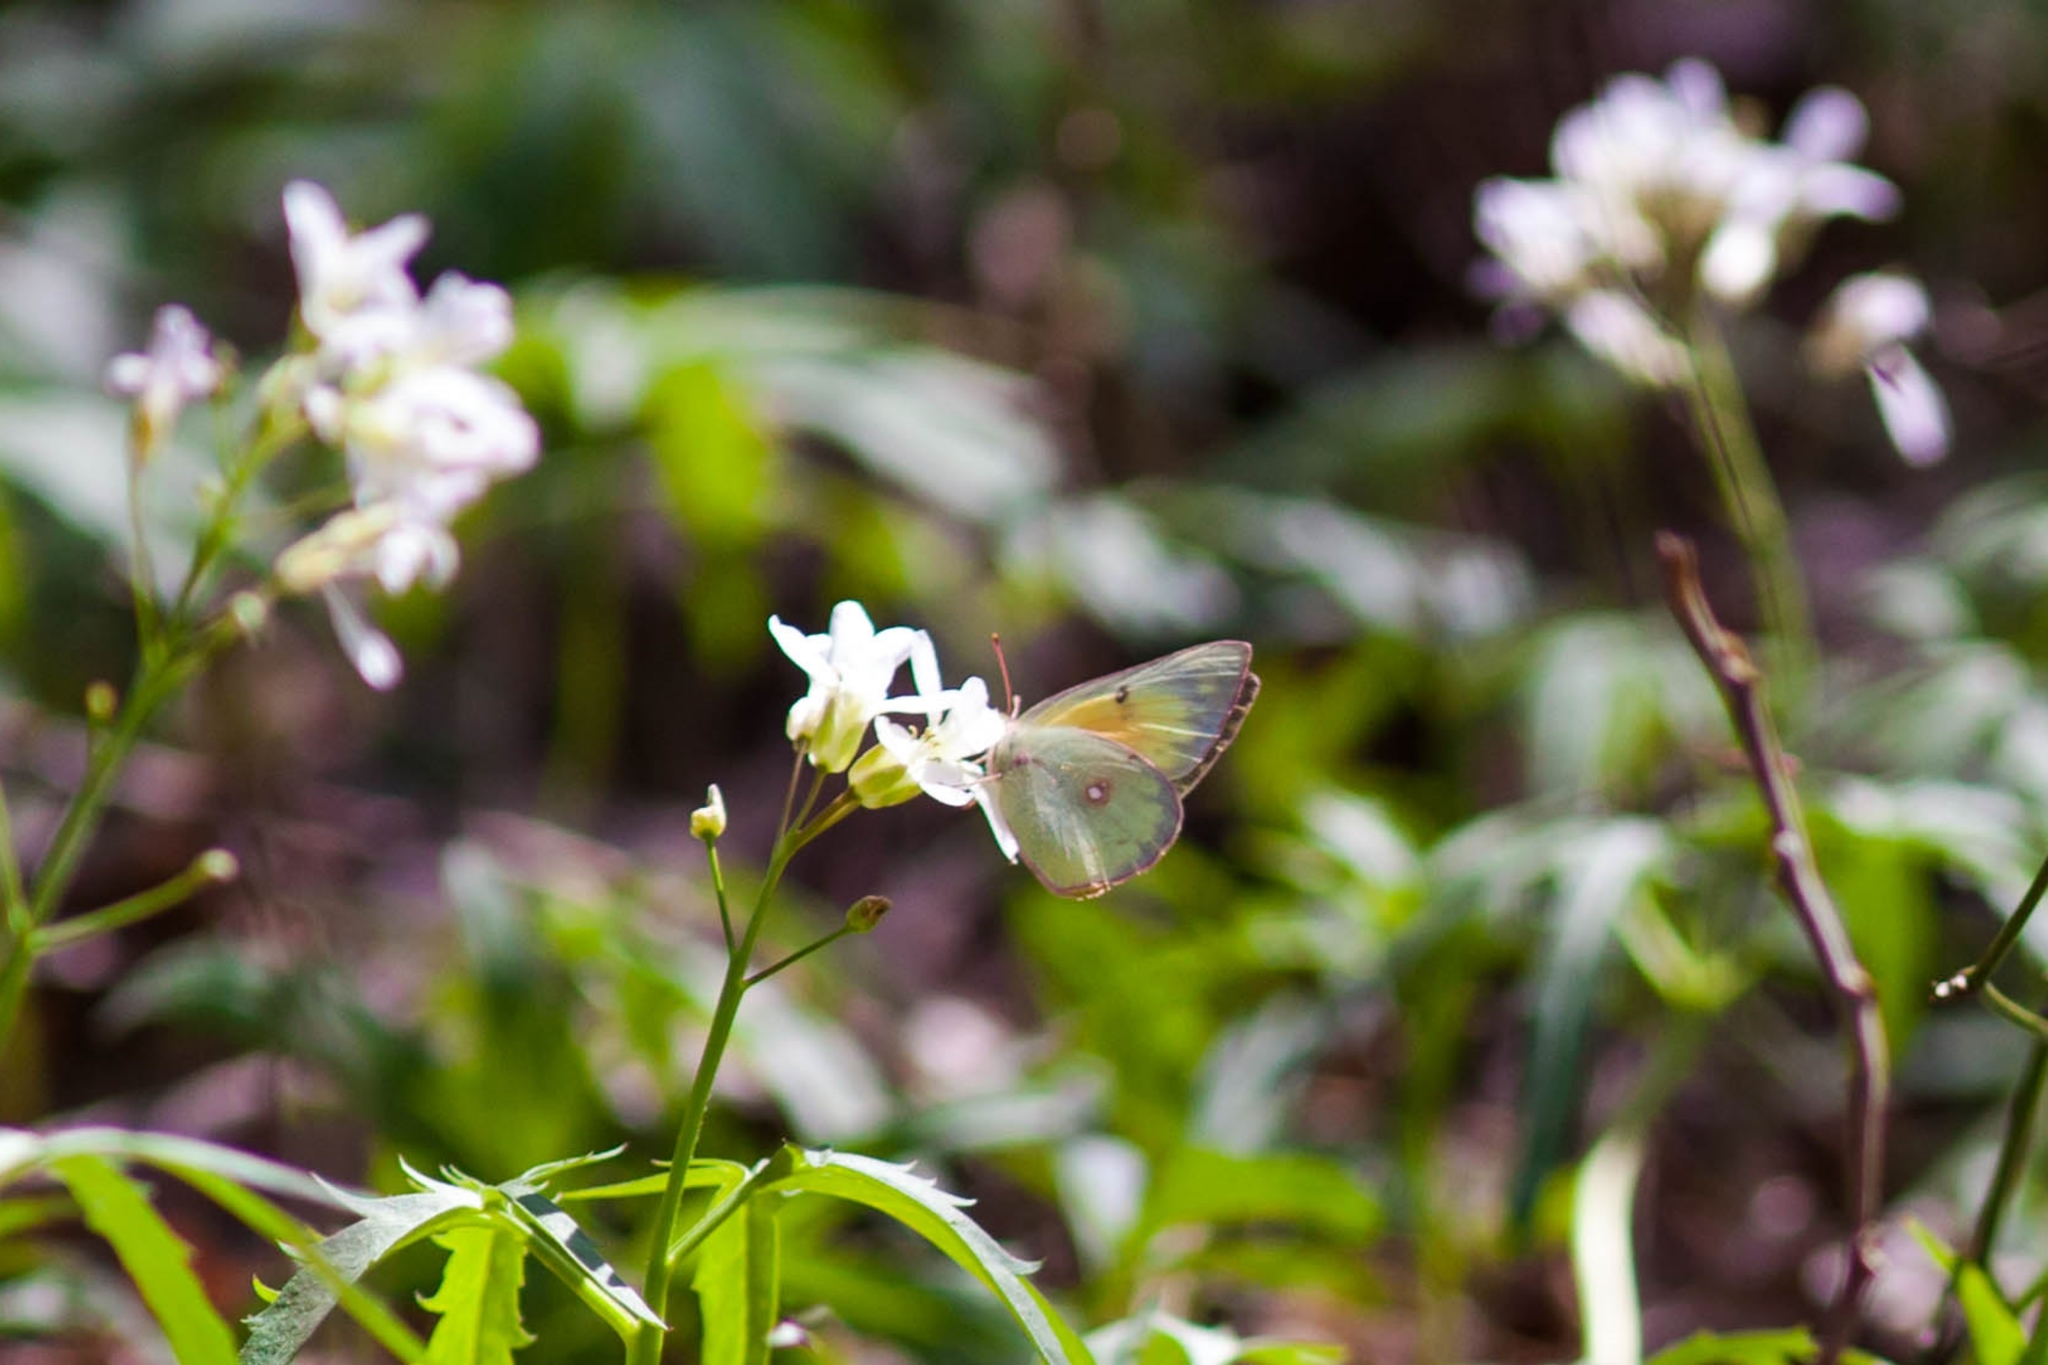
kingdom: Animalia
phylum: Arthropoda
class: Insecta
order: Lepidoptera
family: Pieridae
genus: Colias
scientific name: Colias eurytheme
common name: Alfalfa butterfly
